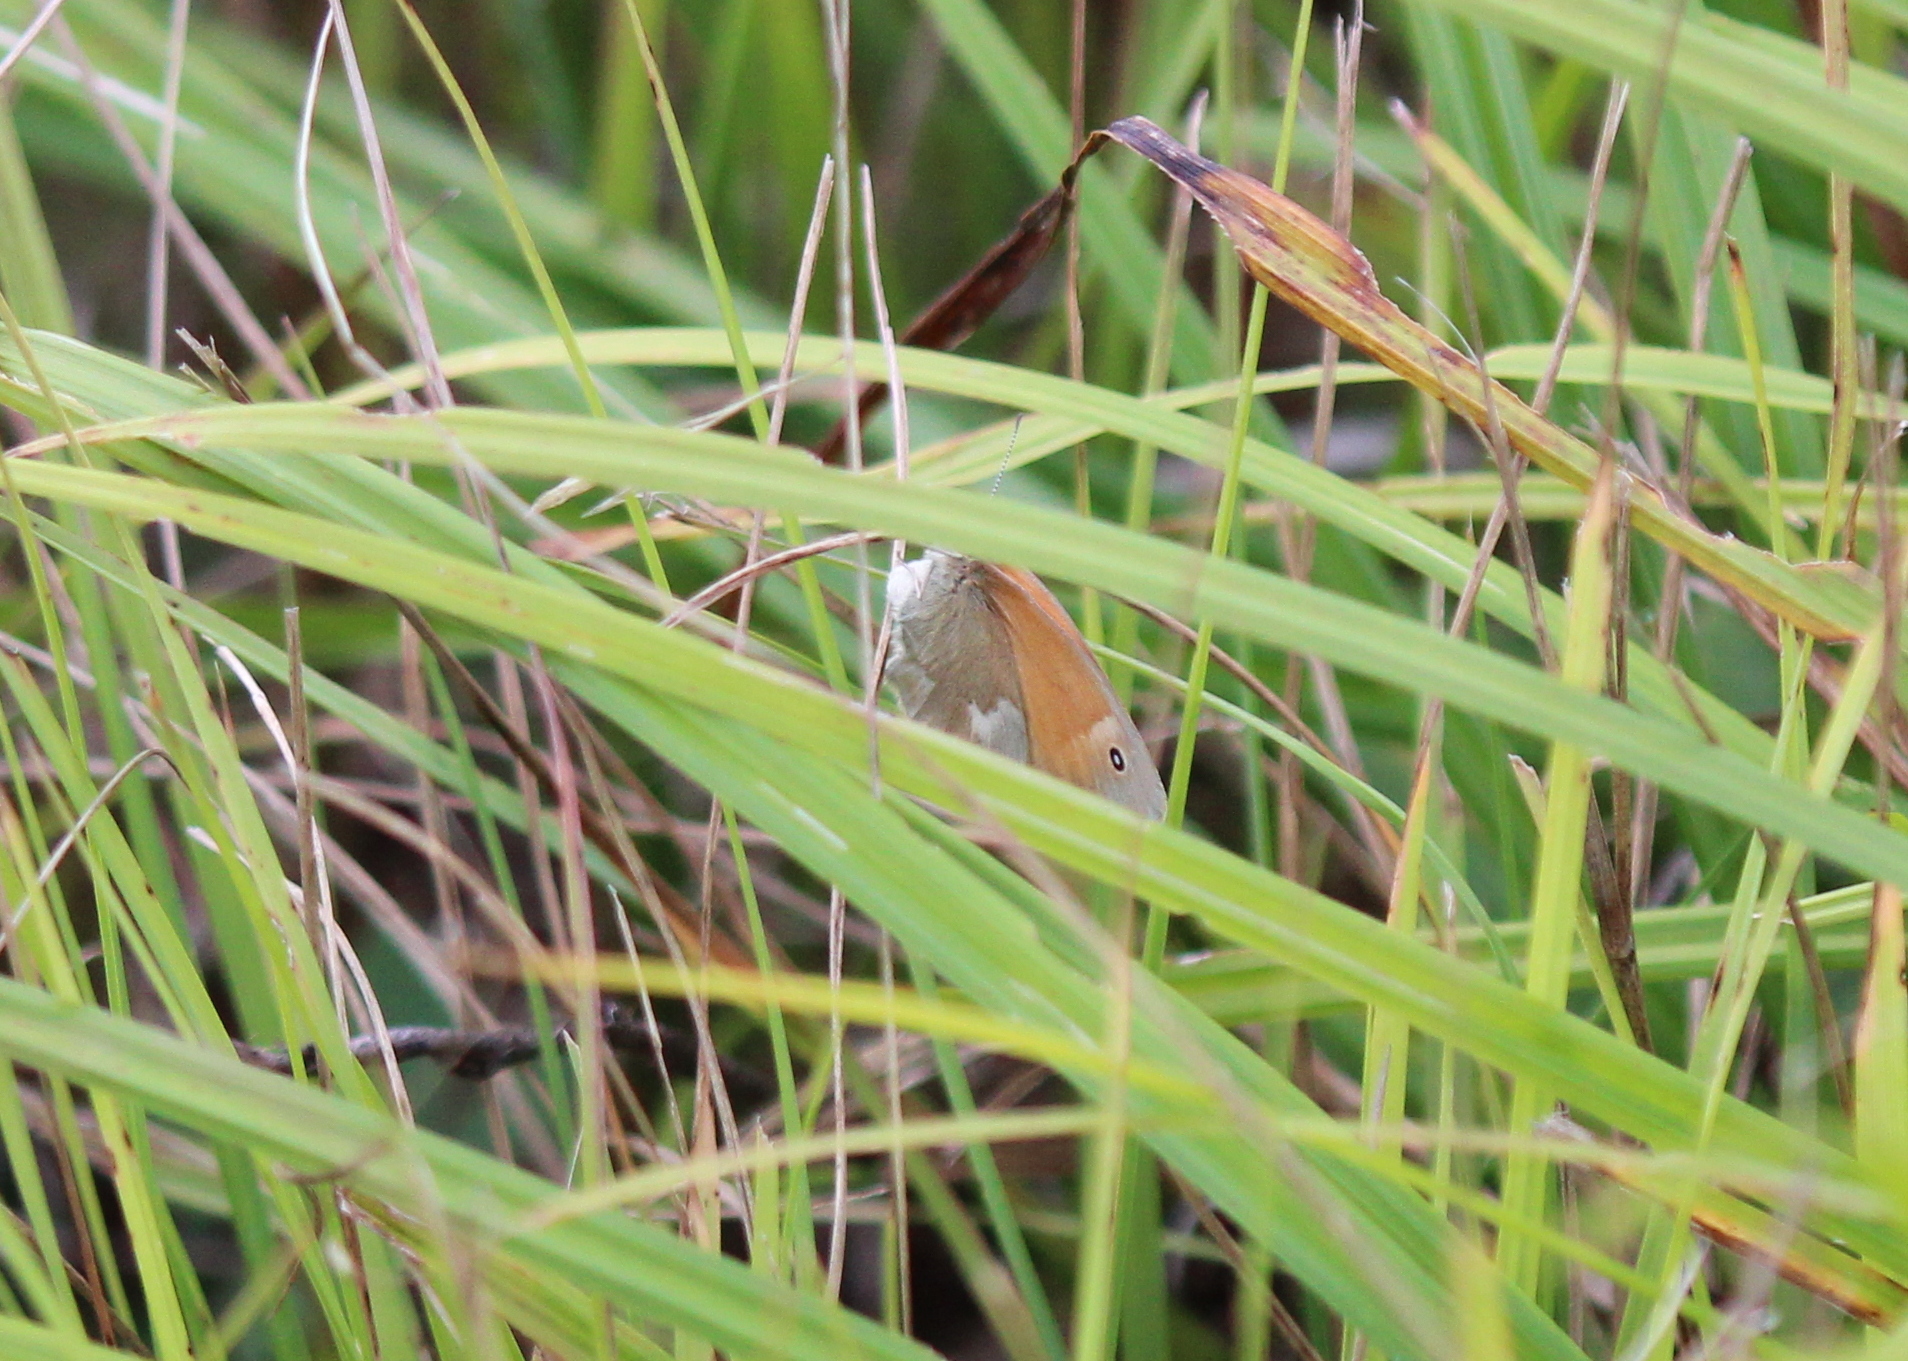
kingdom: Animalia
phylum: Arthropoda
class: Insecta
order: Lepidoptera
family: Nymphalidae
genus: Coenonympha
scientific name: Coenonympha california
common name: Common ringlet
